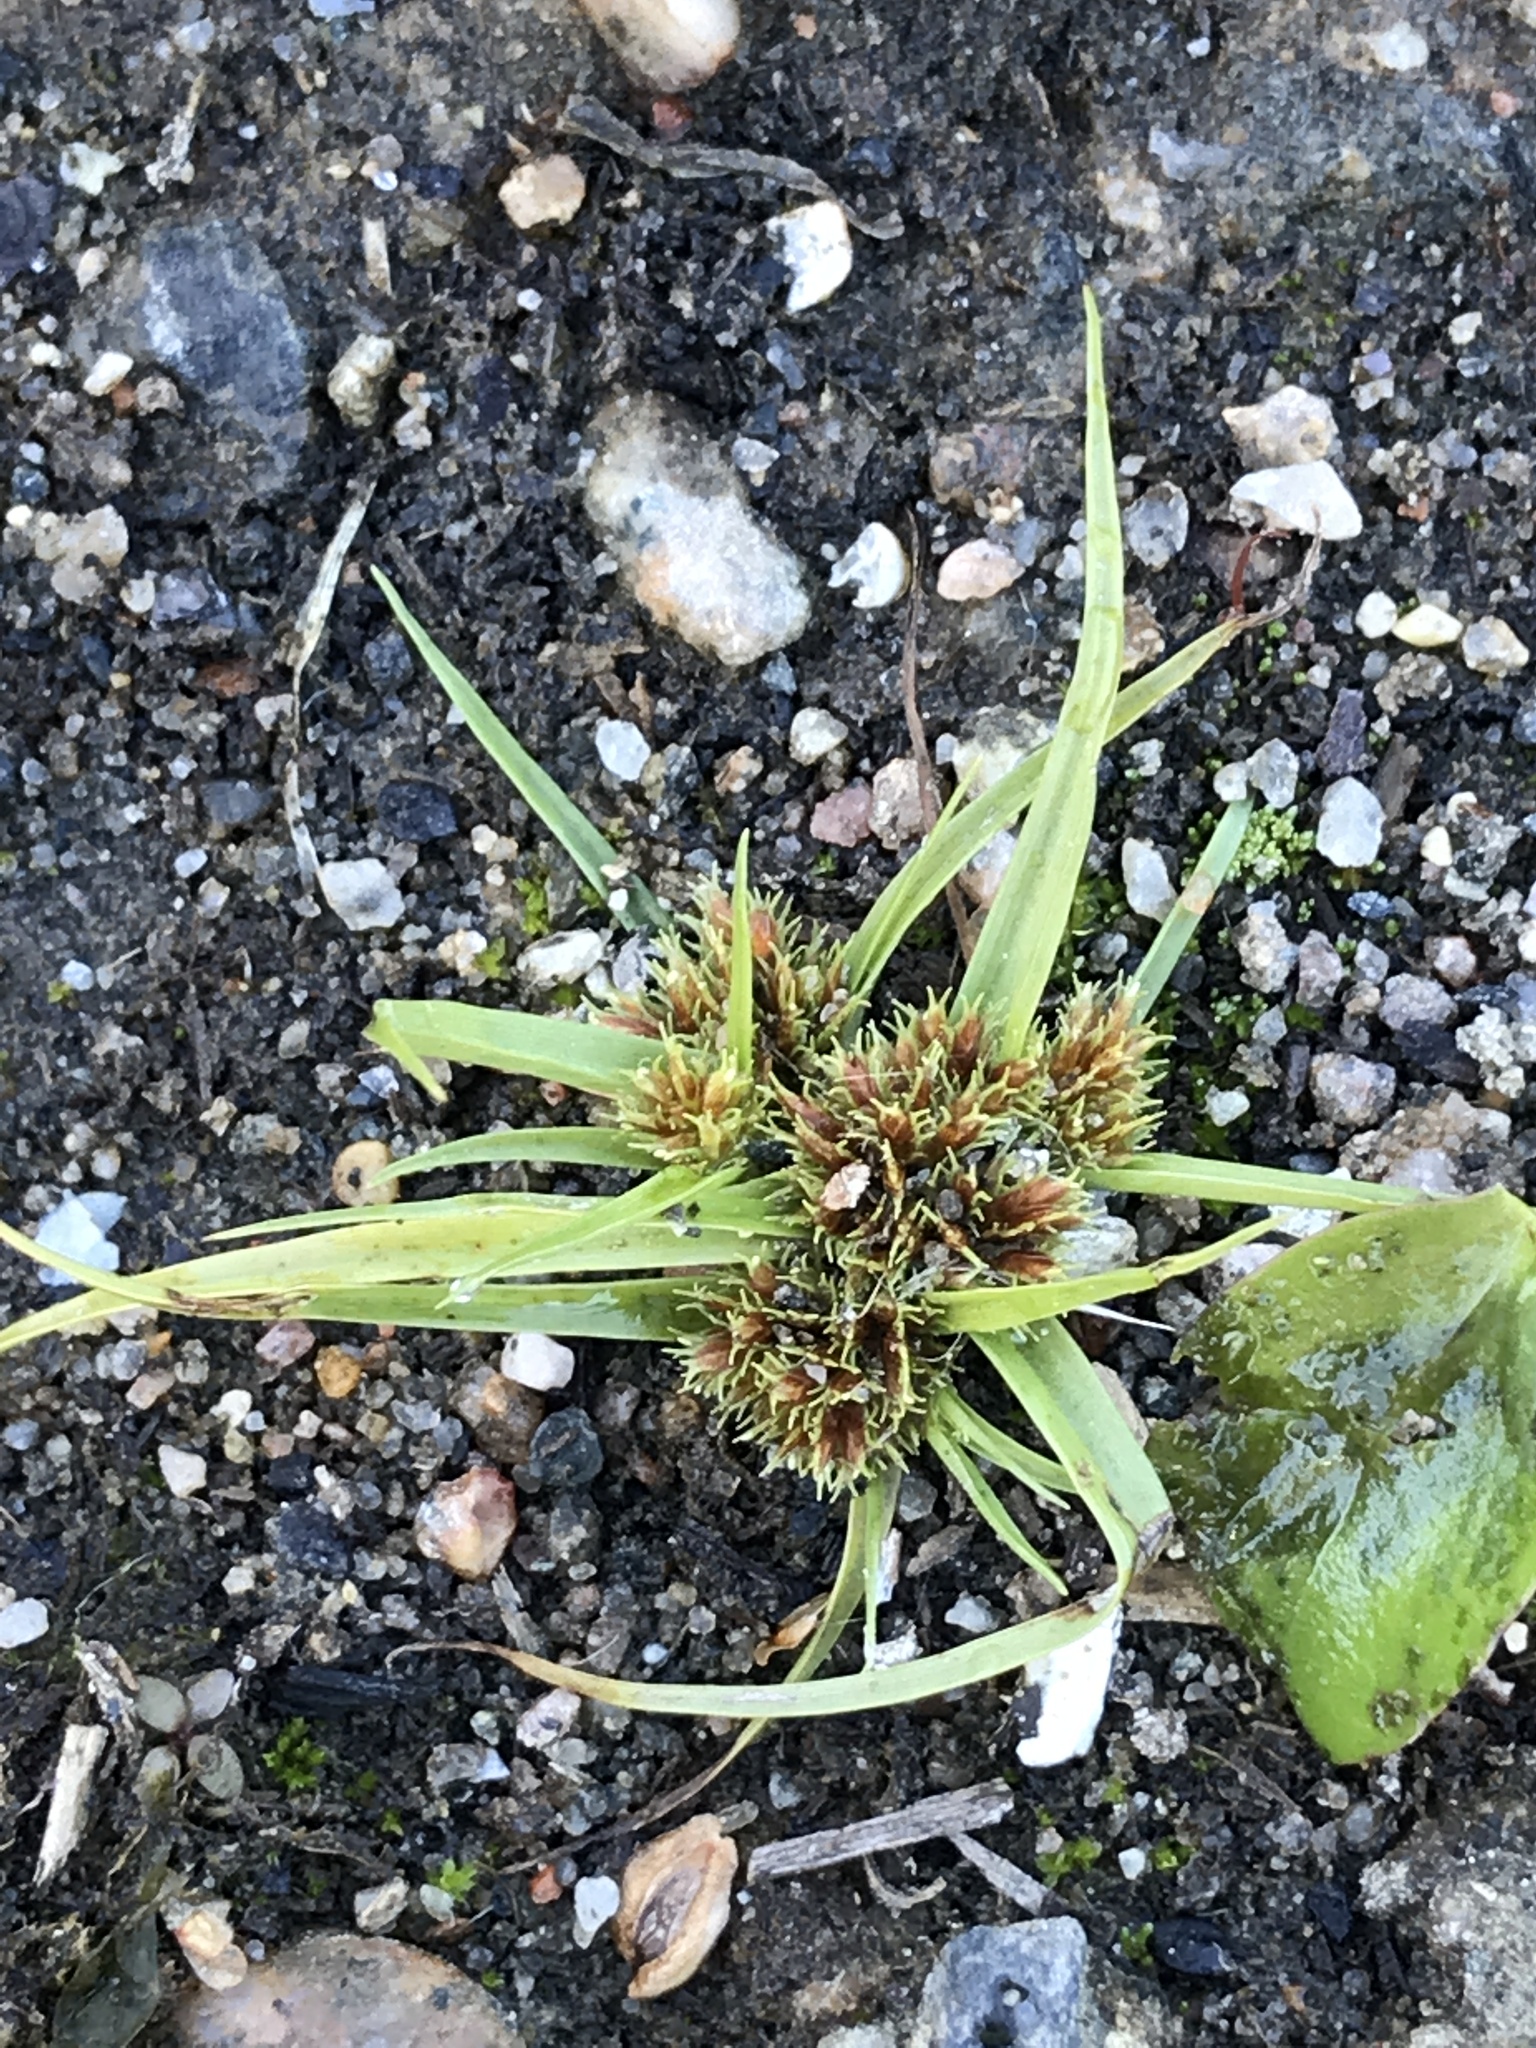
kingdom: Plantae
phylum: Tracheophyta
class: Liliopsida
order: Poales
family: Cyperaceae
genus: Cyperus
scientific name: Cyperus squarrosus
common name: Awned cyperus
